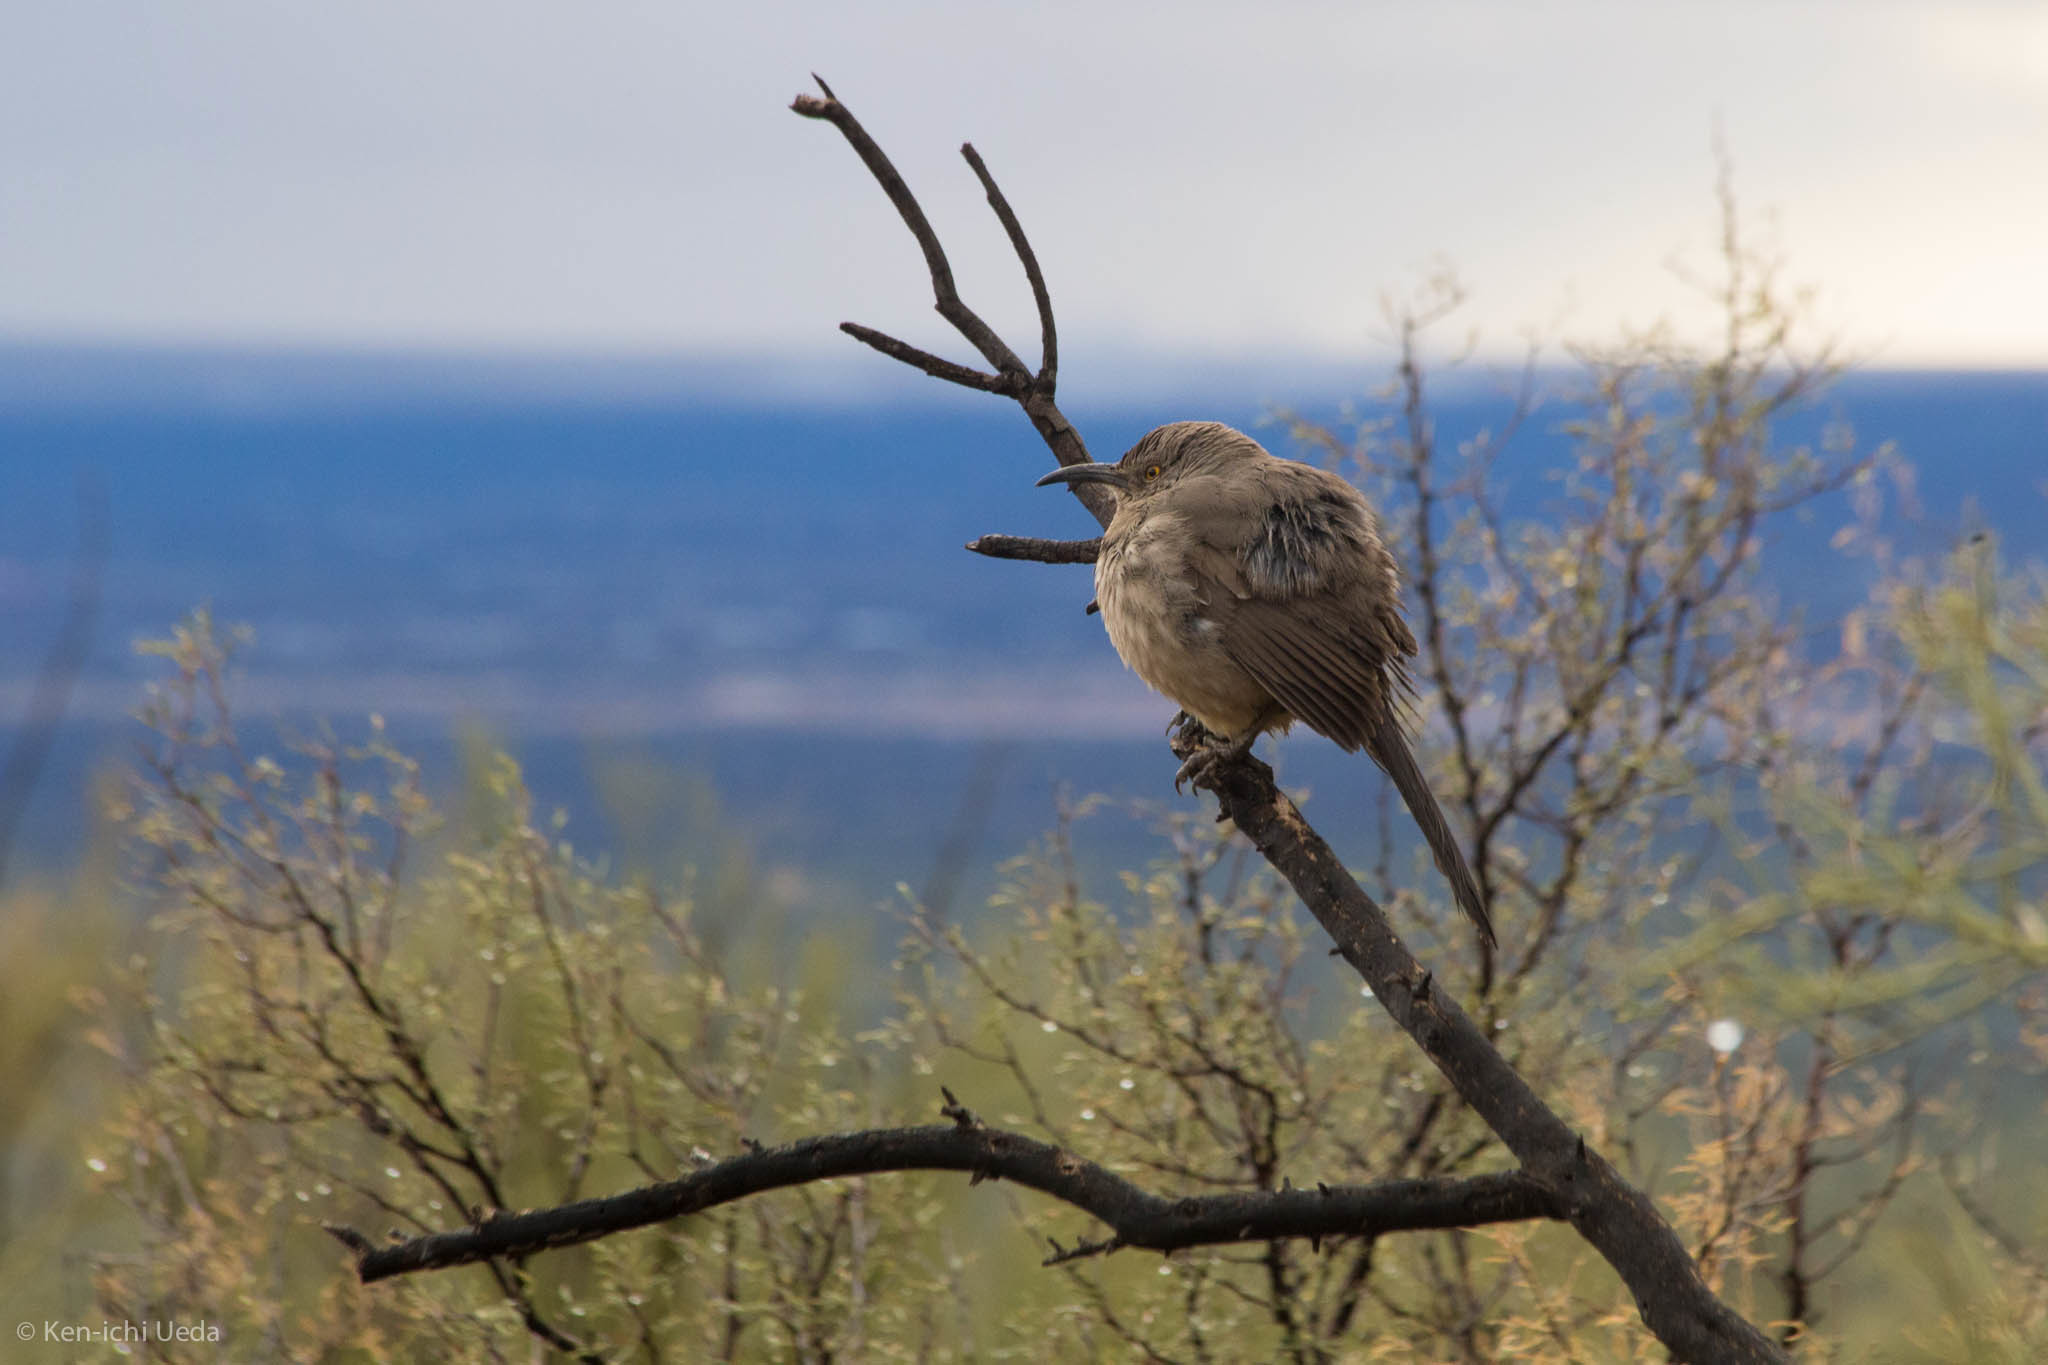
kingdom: Animalia
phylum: Chordata
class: Aves
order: Passeriformes
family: Mimidae
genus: Toxostoma
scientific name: Toxostoma curvirostre
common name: Curve-billed thrasher
